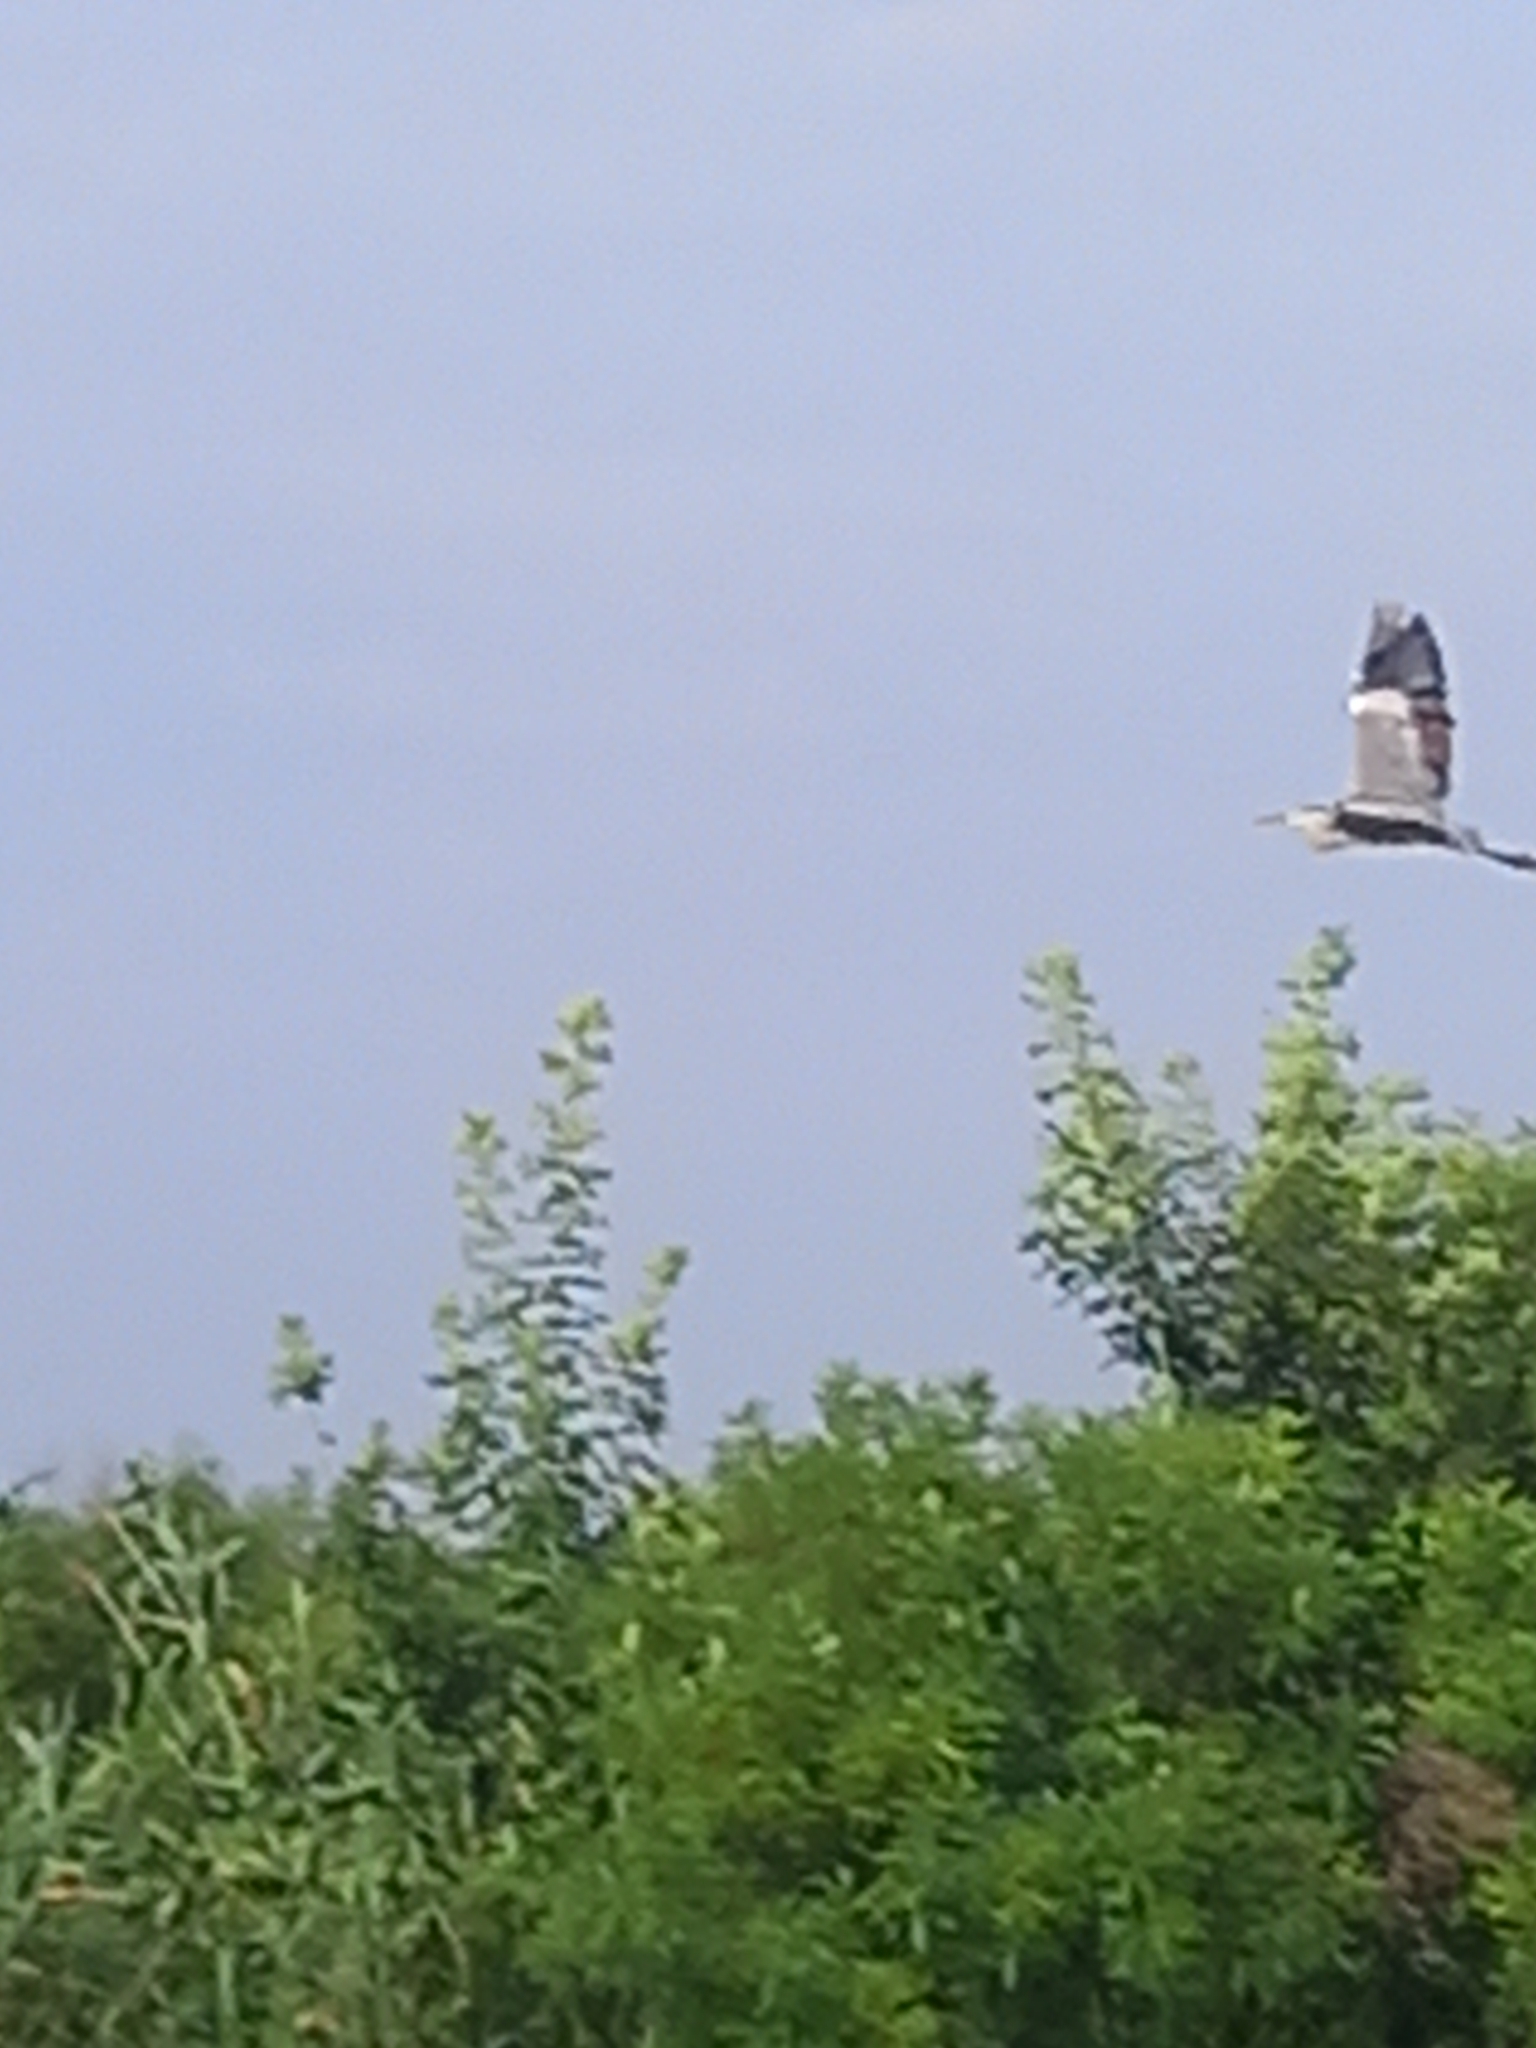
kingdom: Animalia
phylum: Chordata
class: Aves
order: Pelecaniformes
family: Ardeidae
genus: Ardea
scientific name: Ardea cinerea
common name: Grey heron
